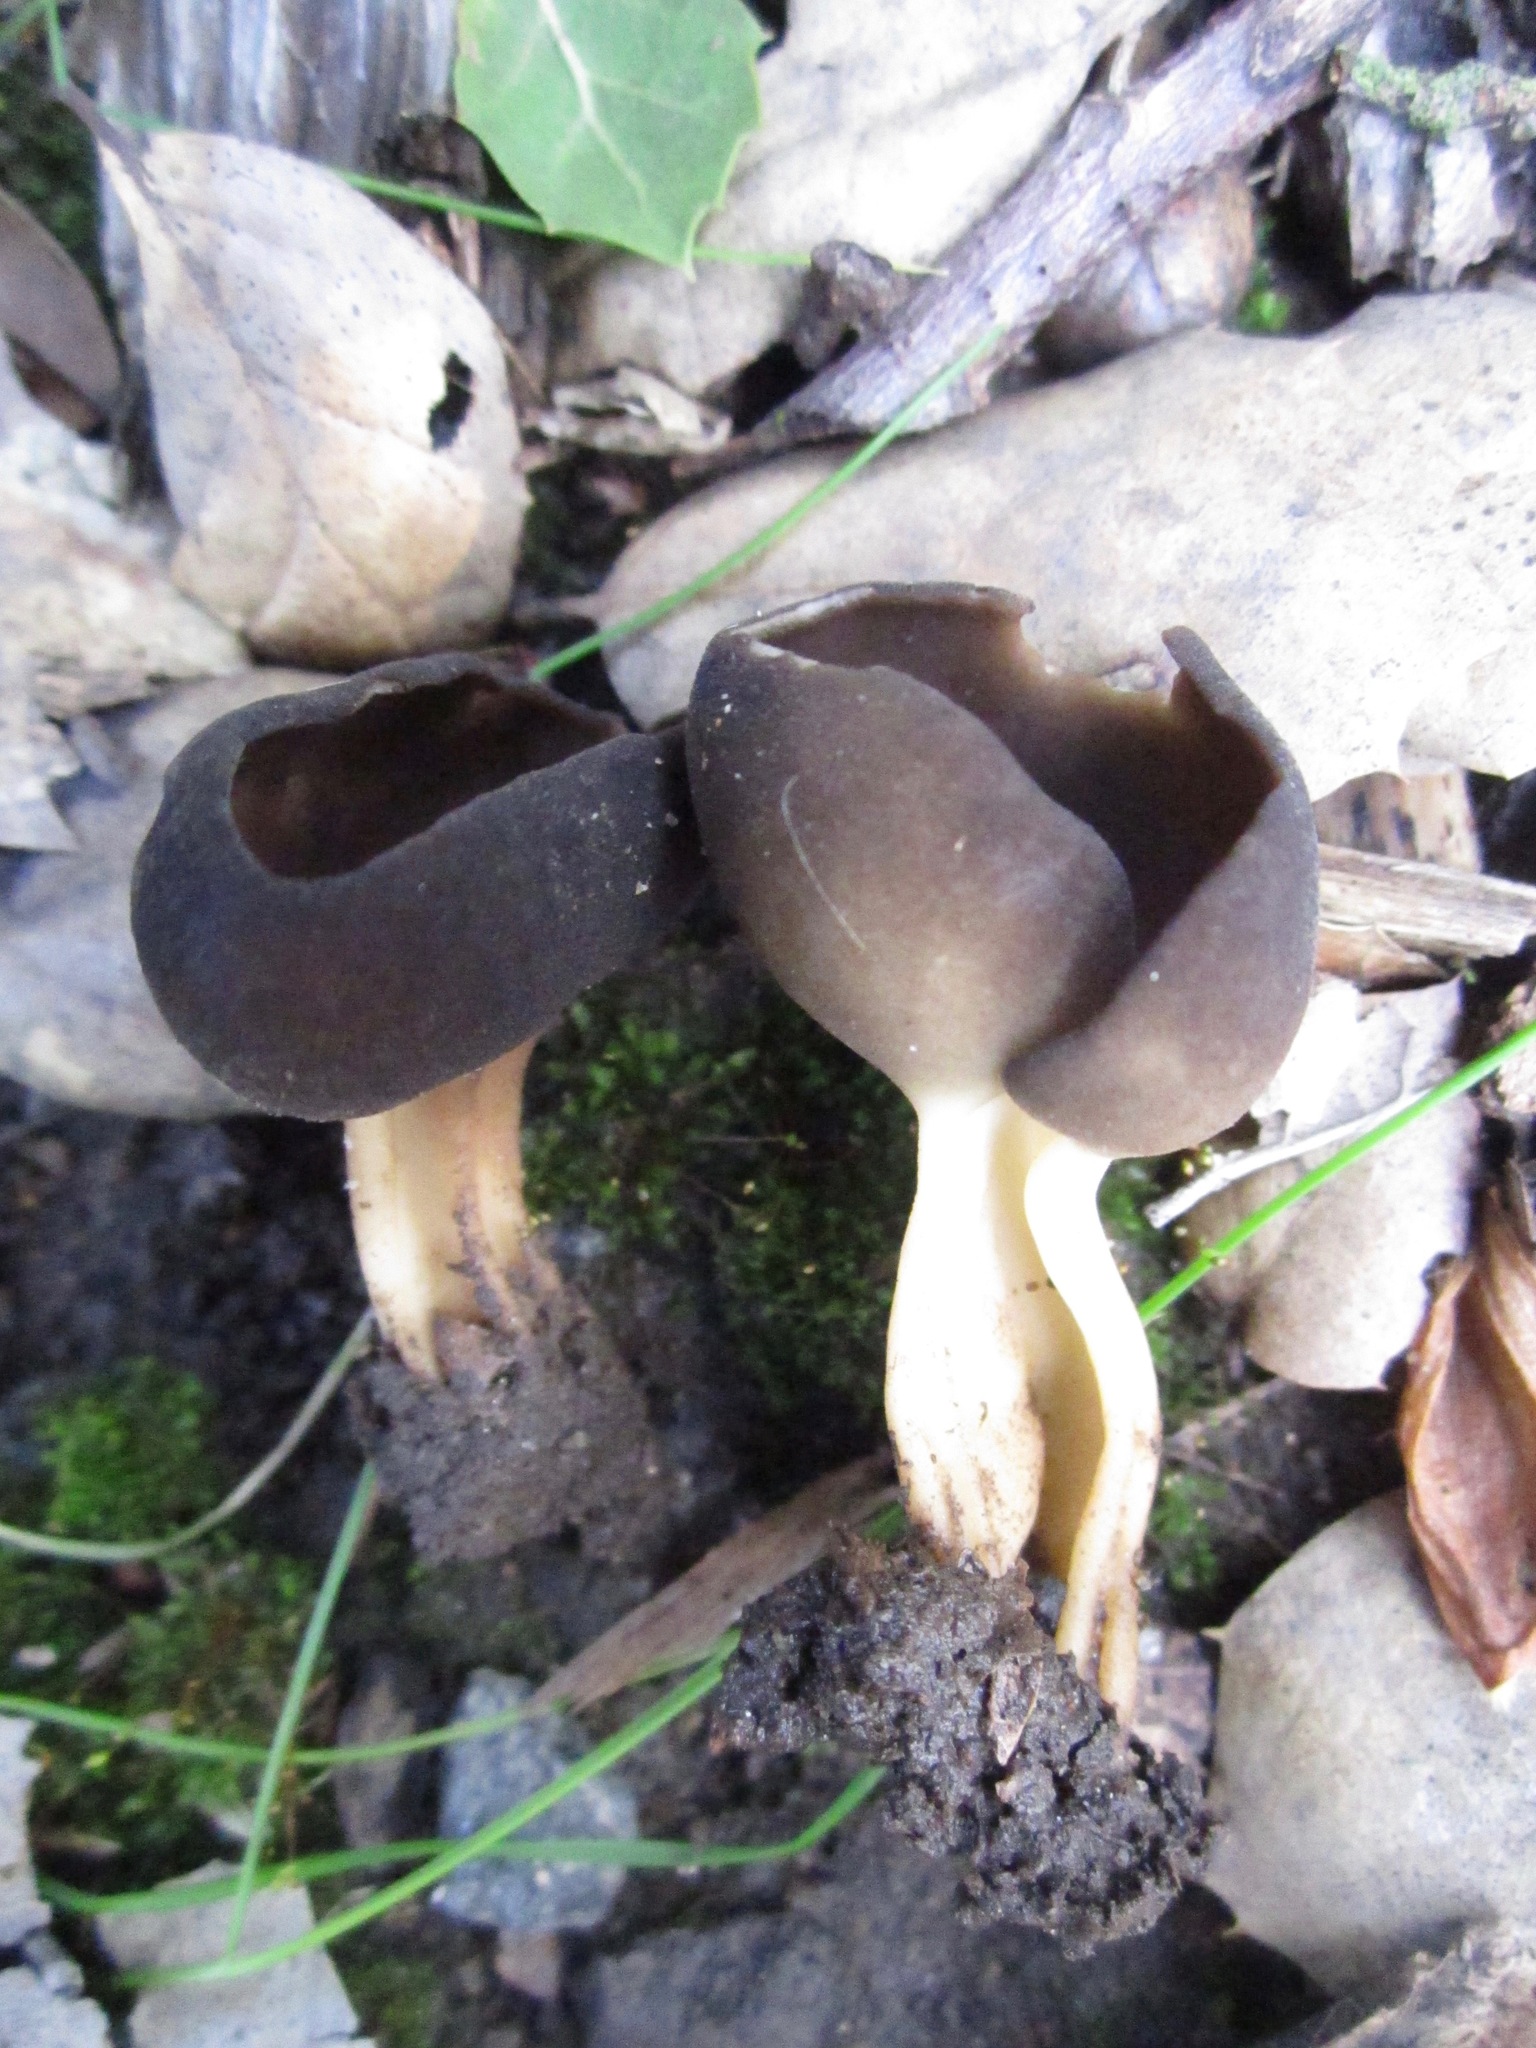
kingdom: Fungi
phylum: Ascomycota
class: Pezizomycetes
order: Pezizales
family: Helvellaceae
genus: Helvella
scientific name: Helvella solitaria
